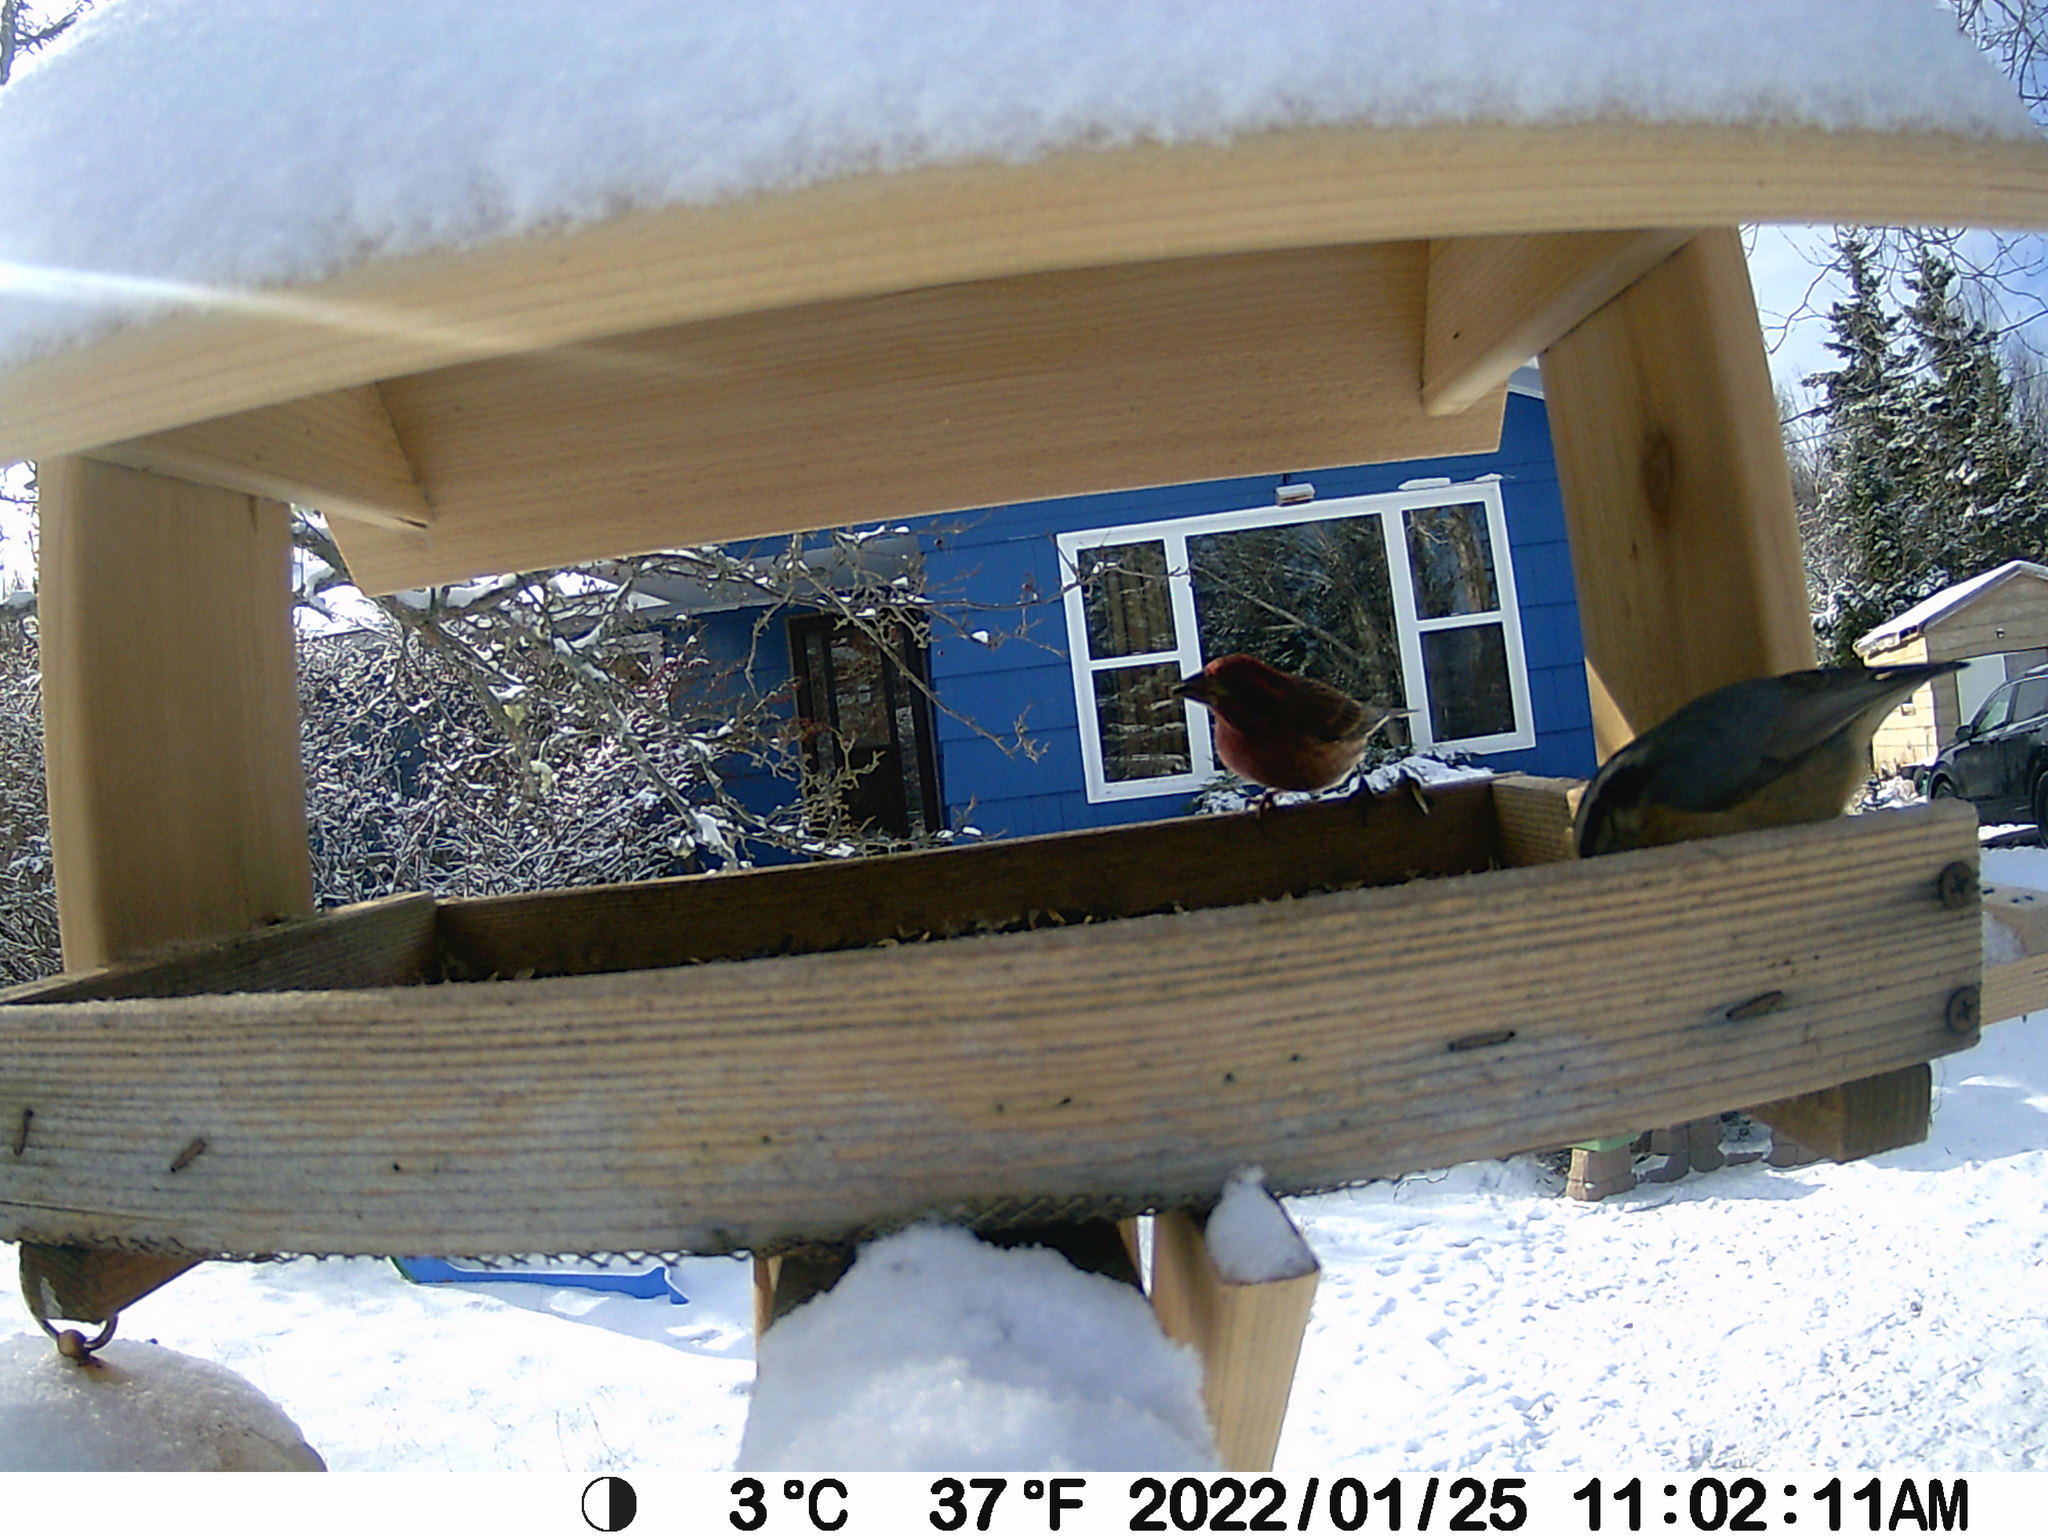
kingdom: Animalia
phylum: Chordata
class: Aves
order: Passeriformes
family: Fringillidae
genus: Haemorhous
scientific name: Haemorhous purpureus
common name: Purple finch
